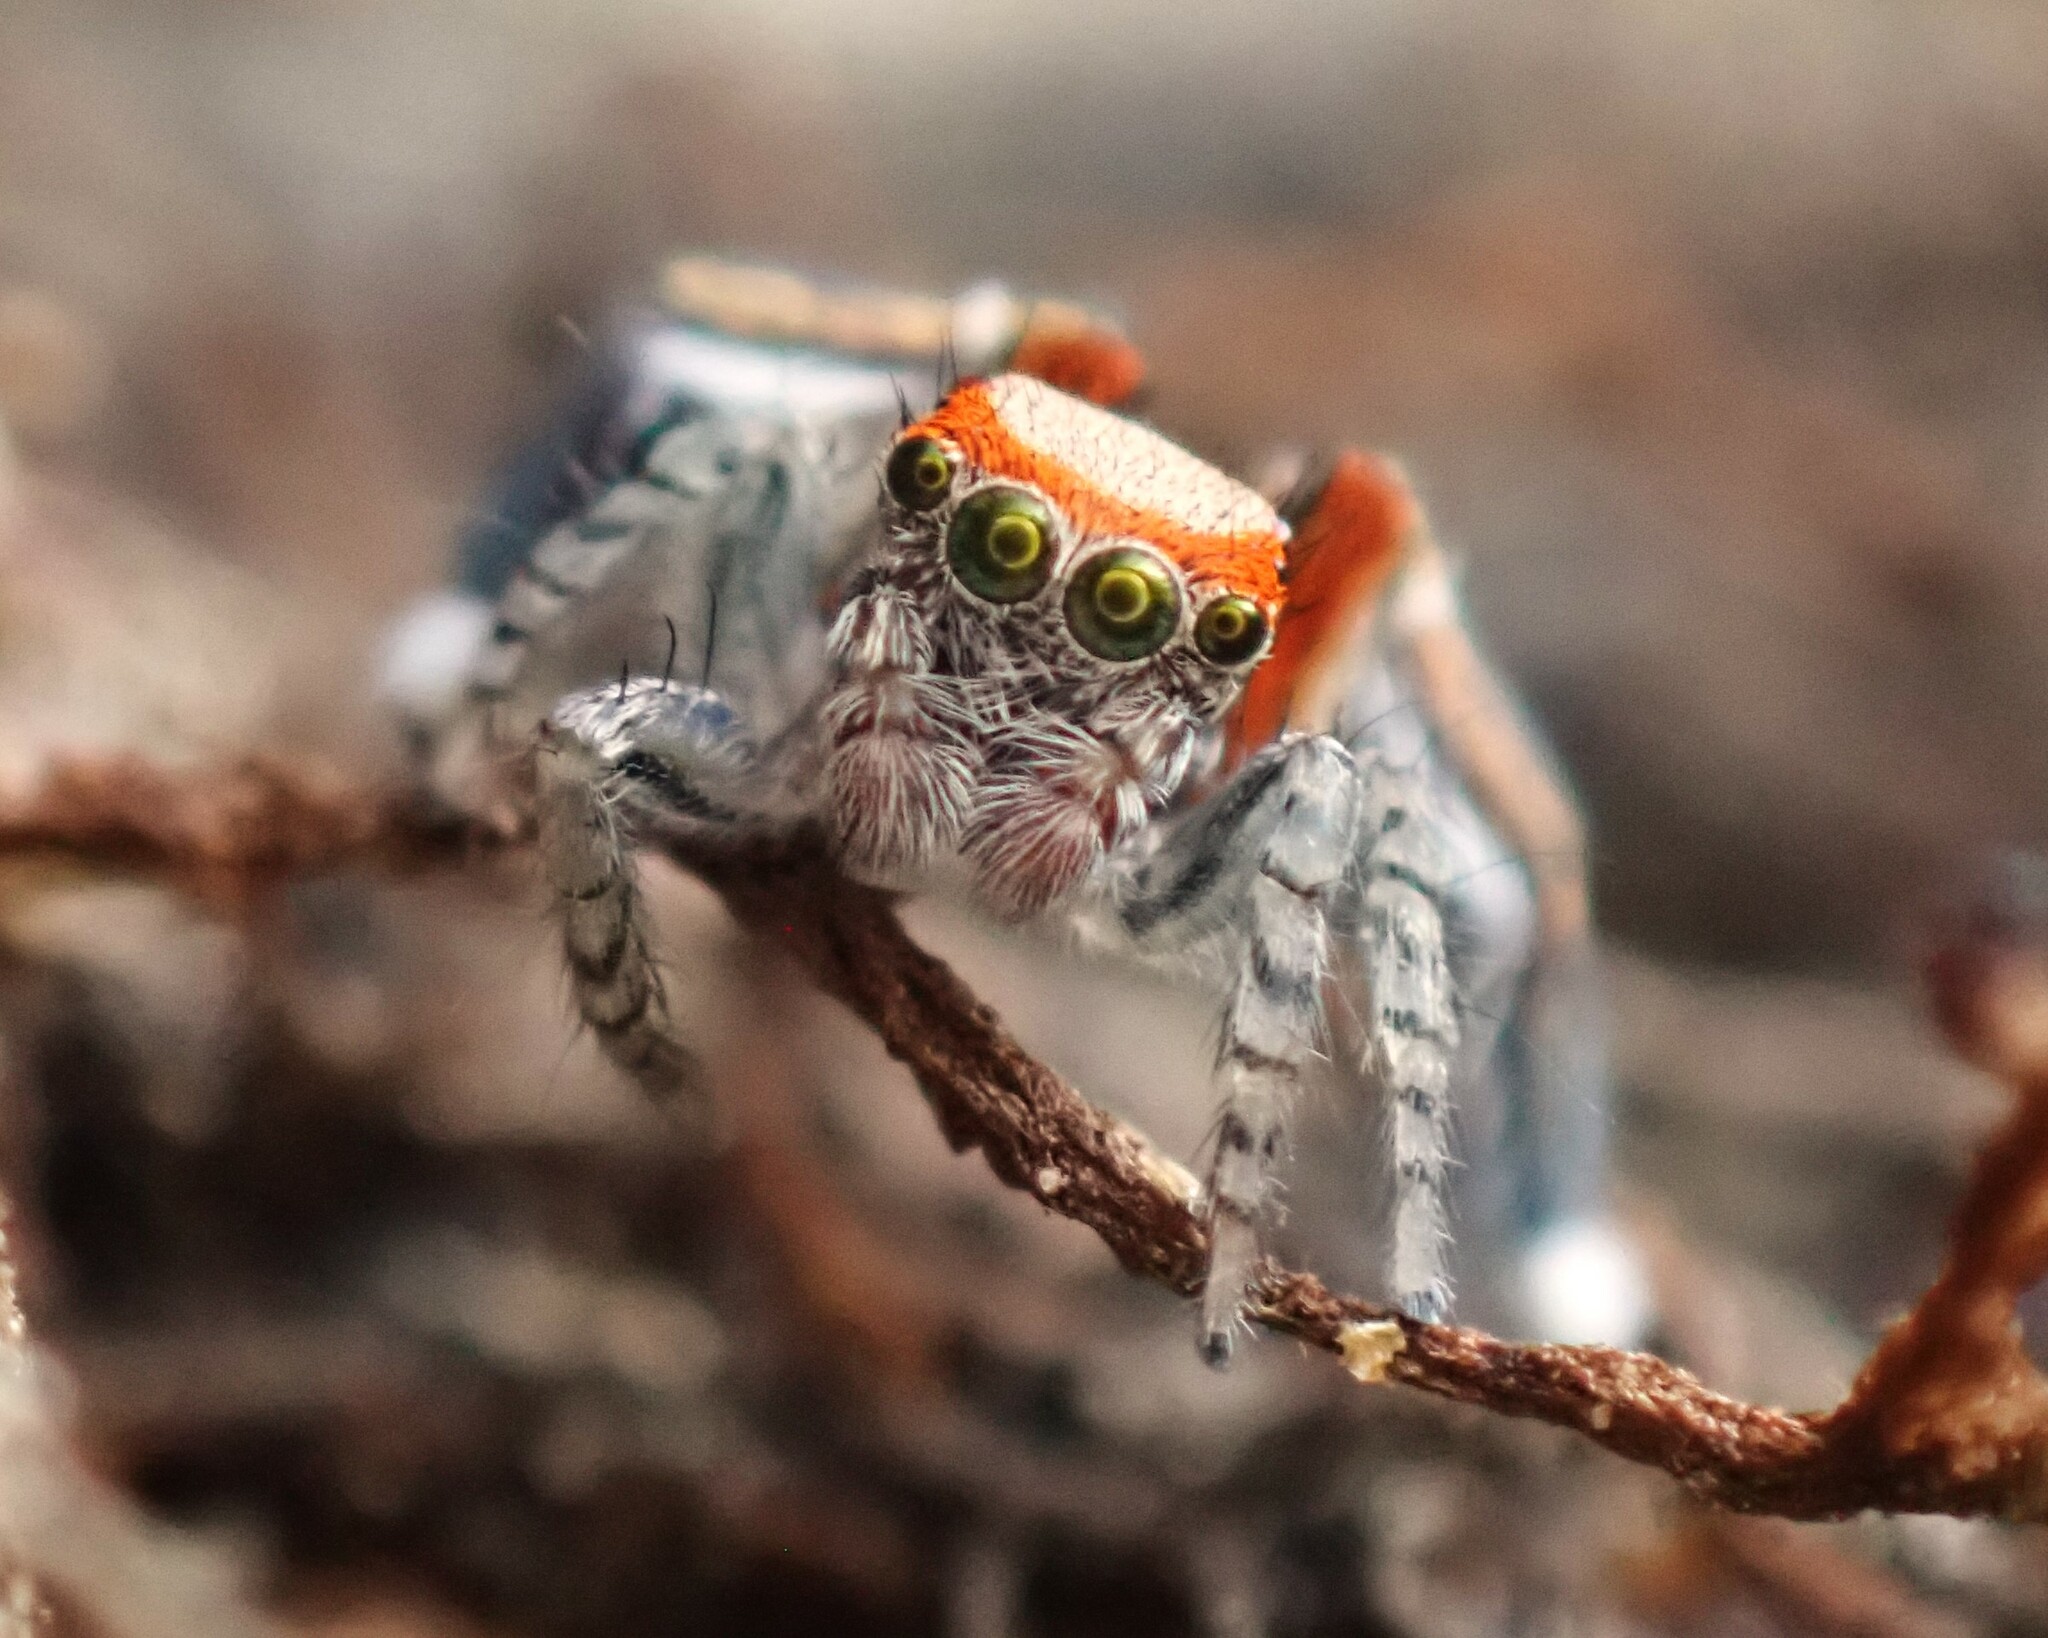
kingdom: Animalia
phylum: Arthropoda
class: Arachnida
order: Araneae
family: Salticidae
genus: Saitis
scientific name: Saitis barbipes
